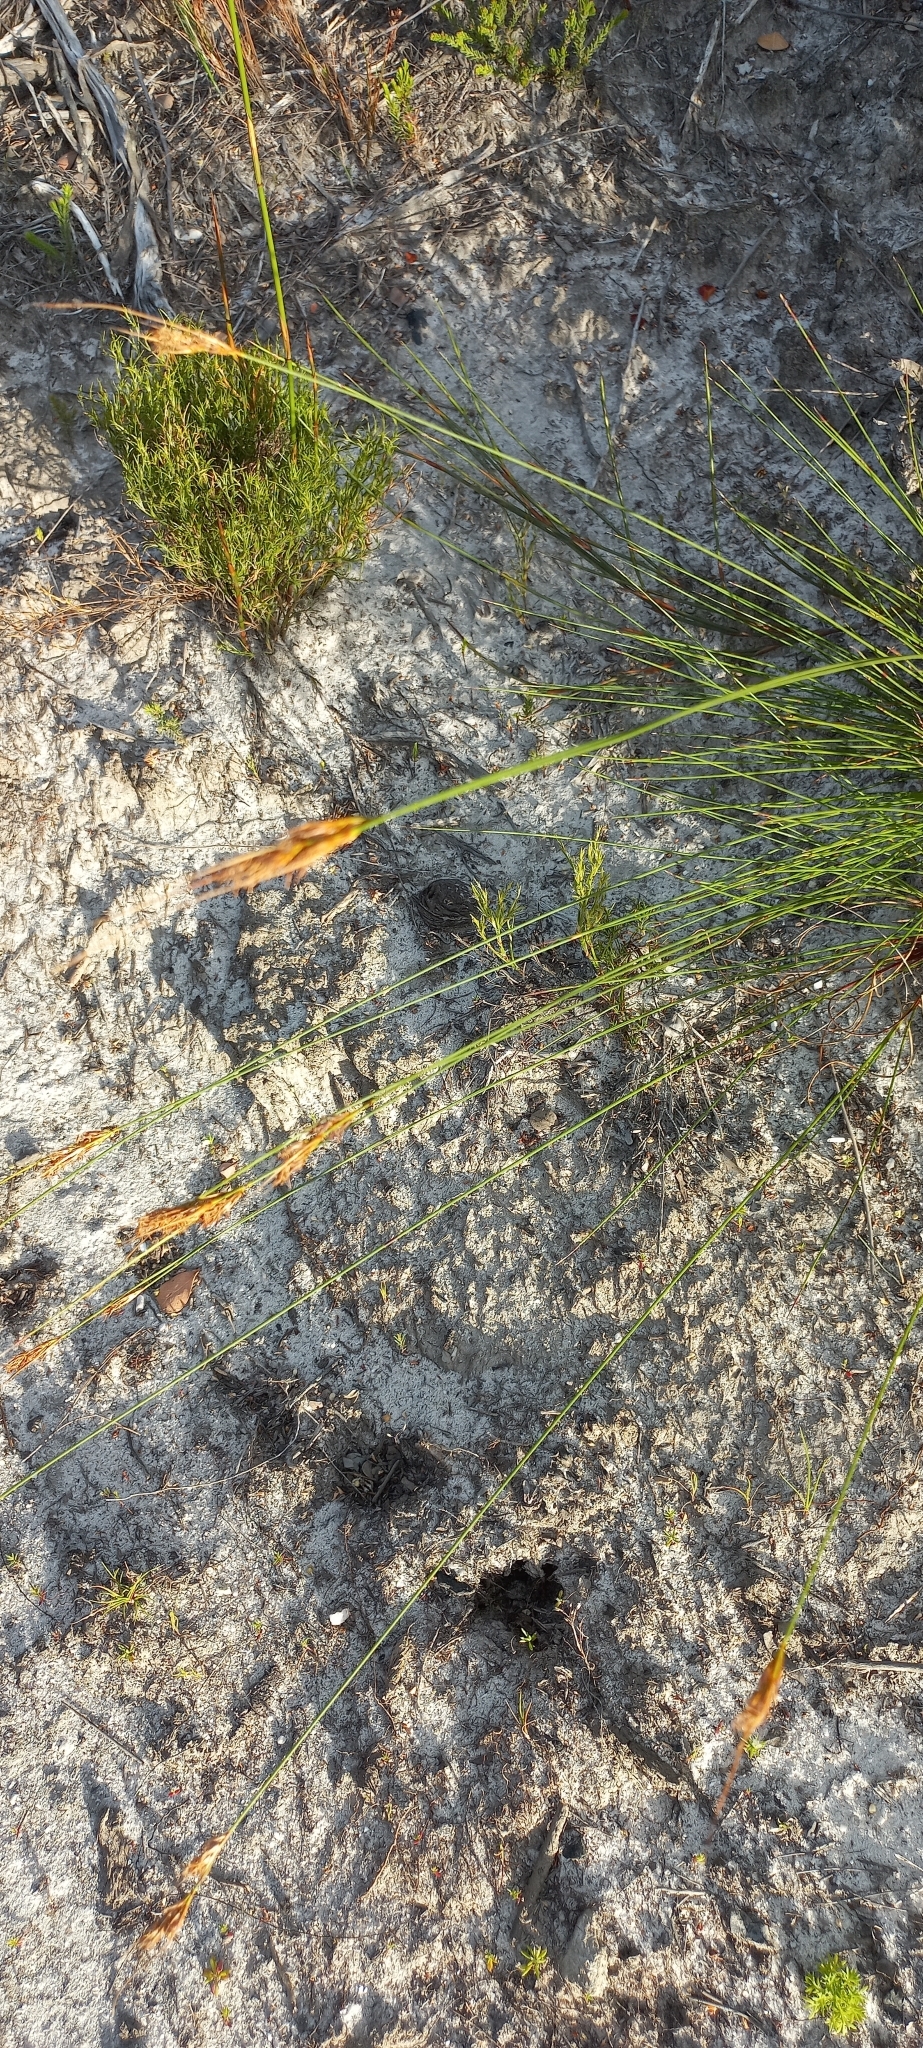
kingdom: Plantae
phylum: Tracheophyta
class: Liliopsida
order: Poales
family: Cyperaceae
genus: Schoenus
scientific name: Schoenus compactus
